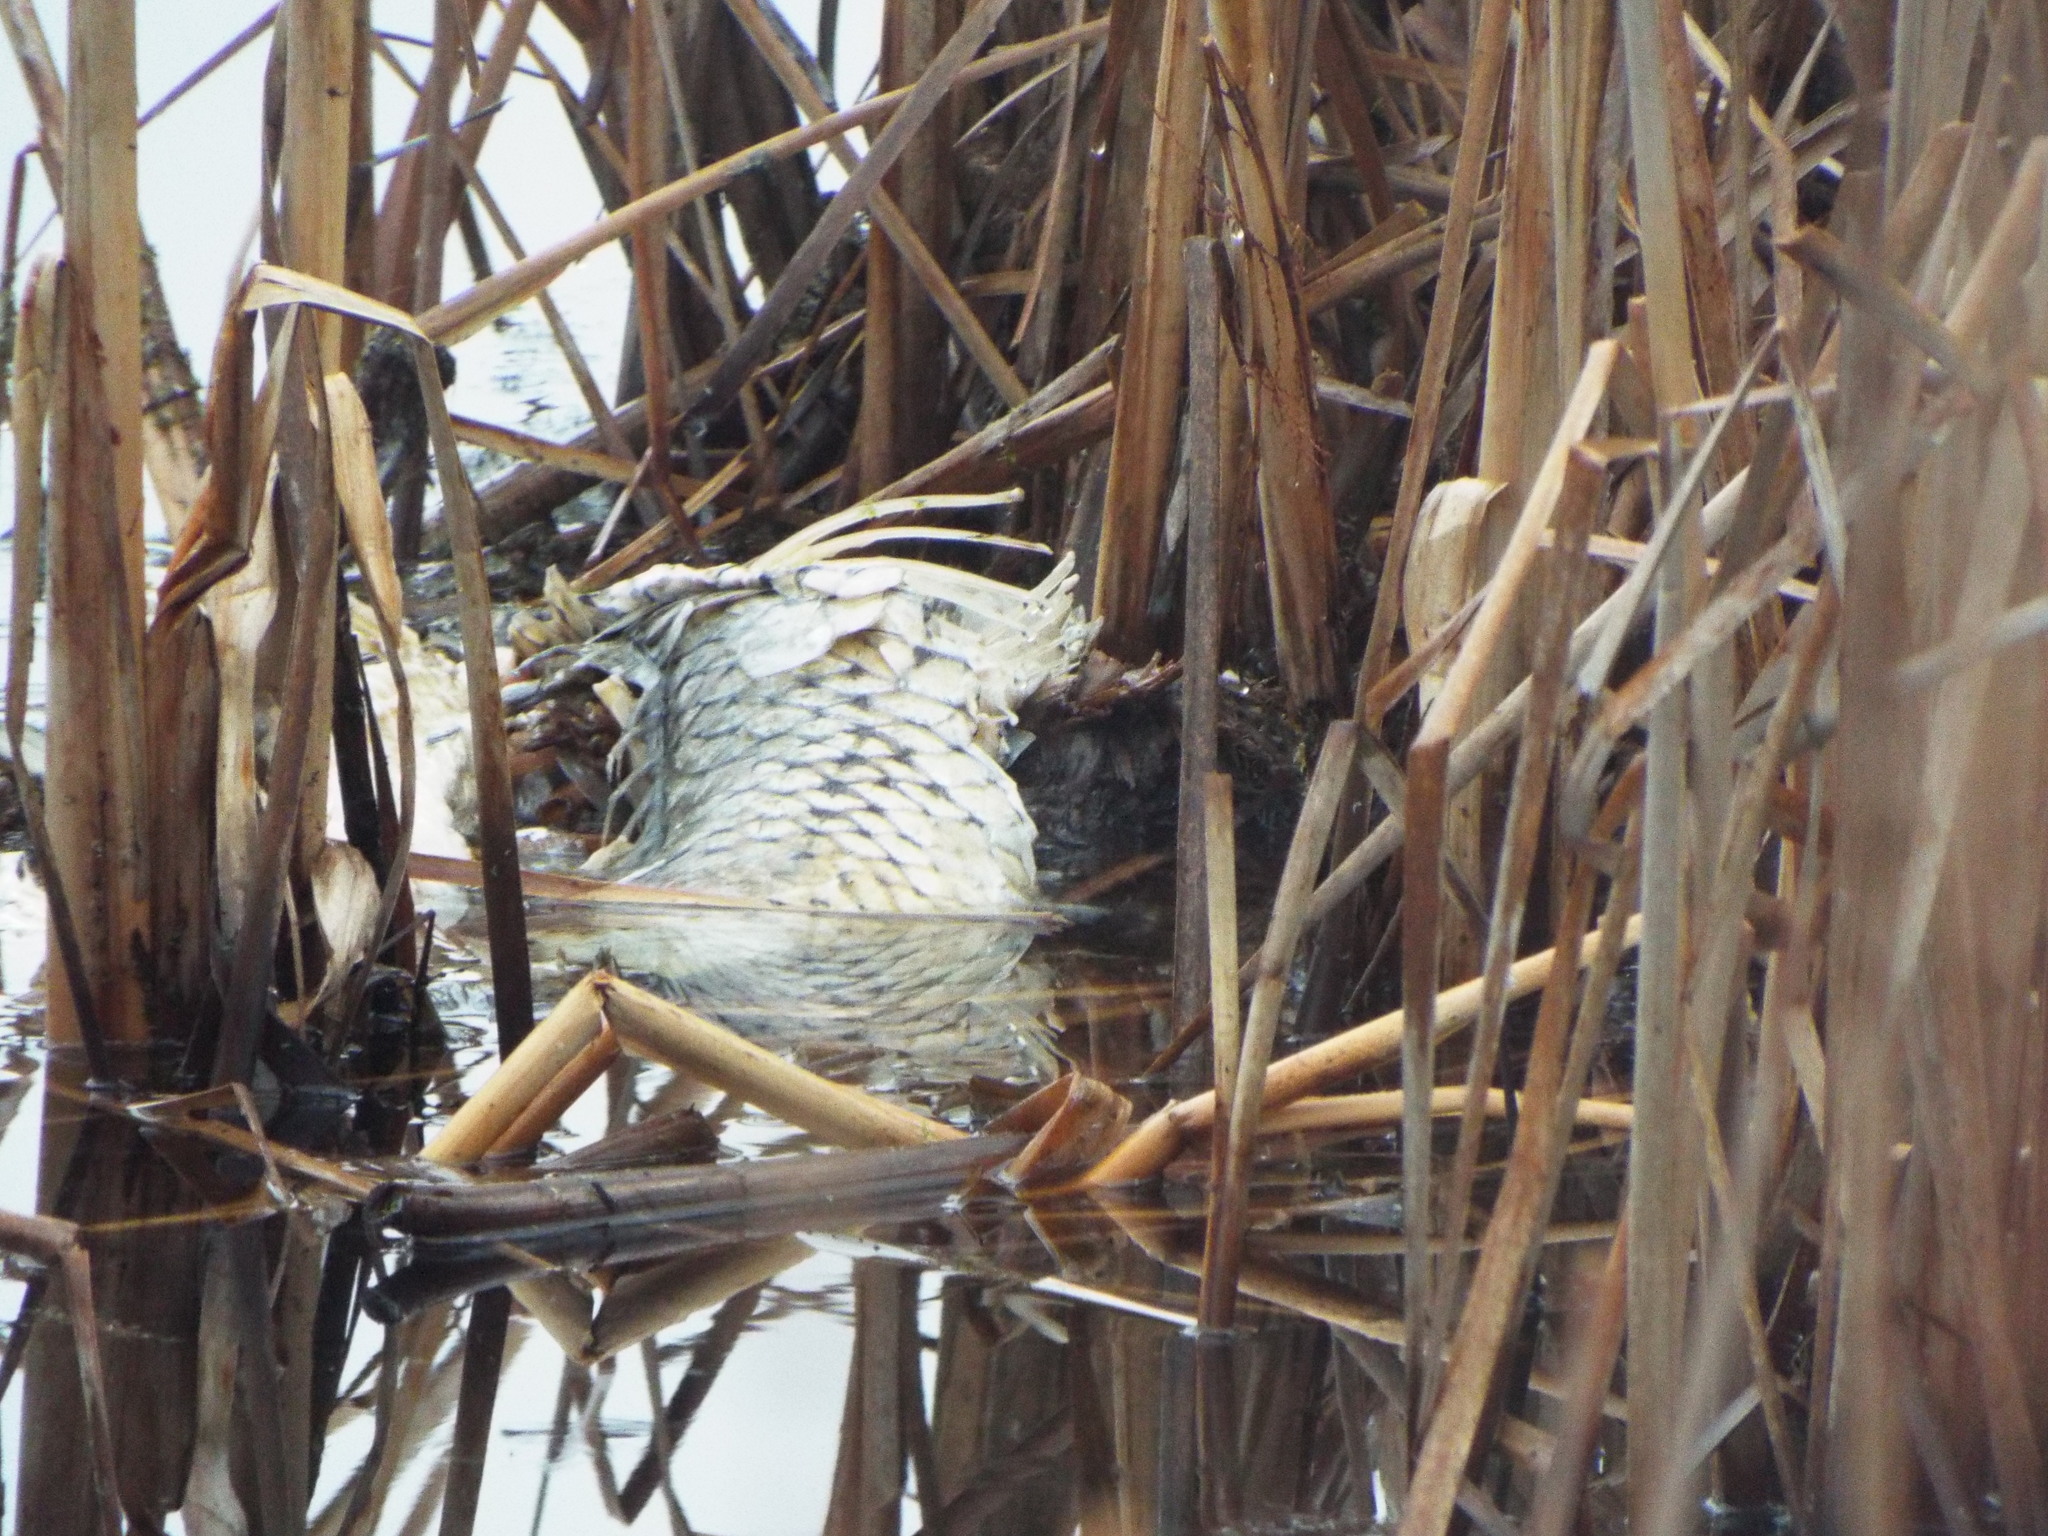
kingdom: Animalia
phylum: Chordata
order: Cypriniformes
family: Cyprinidae
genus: Cyprinus
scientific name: Cyprinus carpio
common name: Common carp
